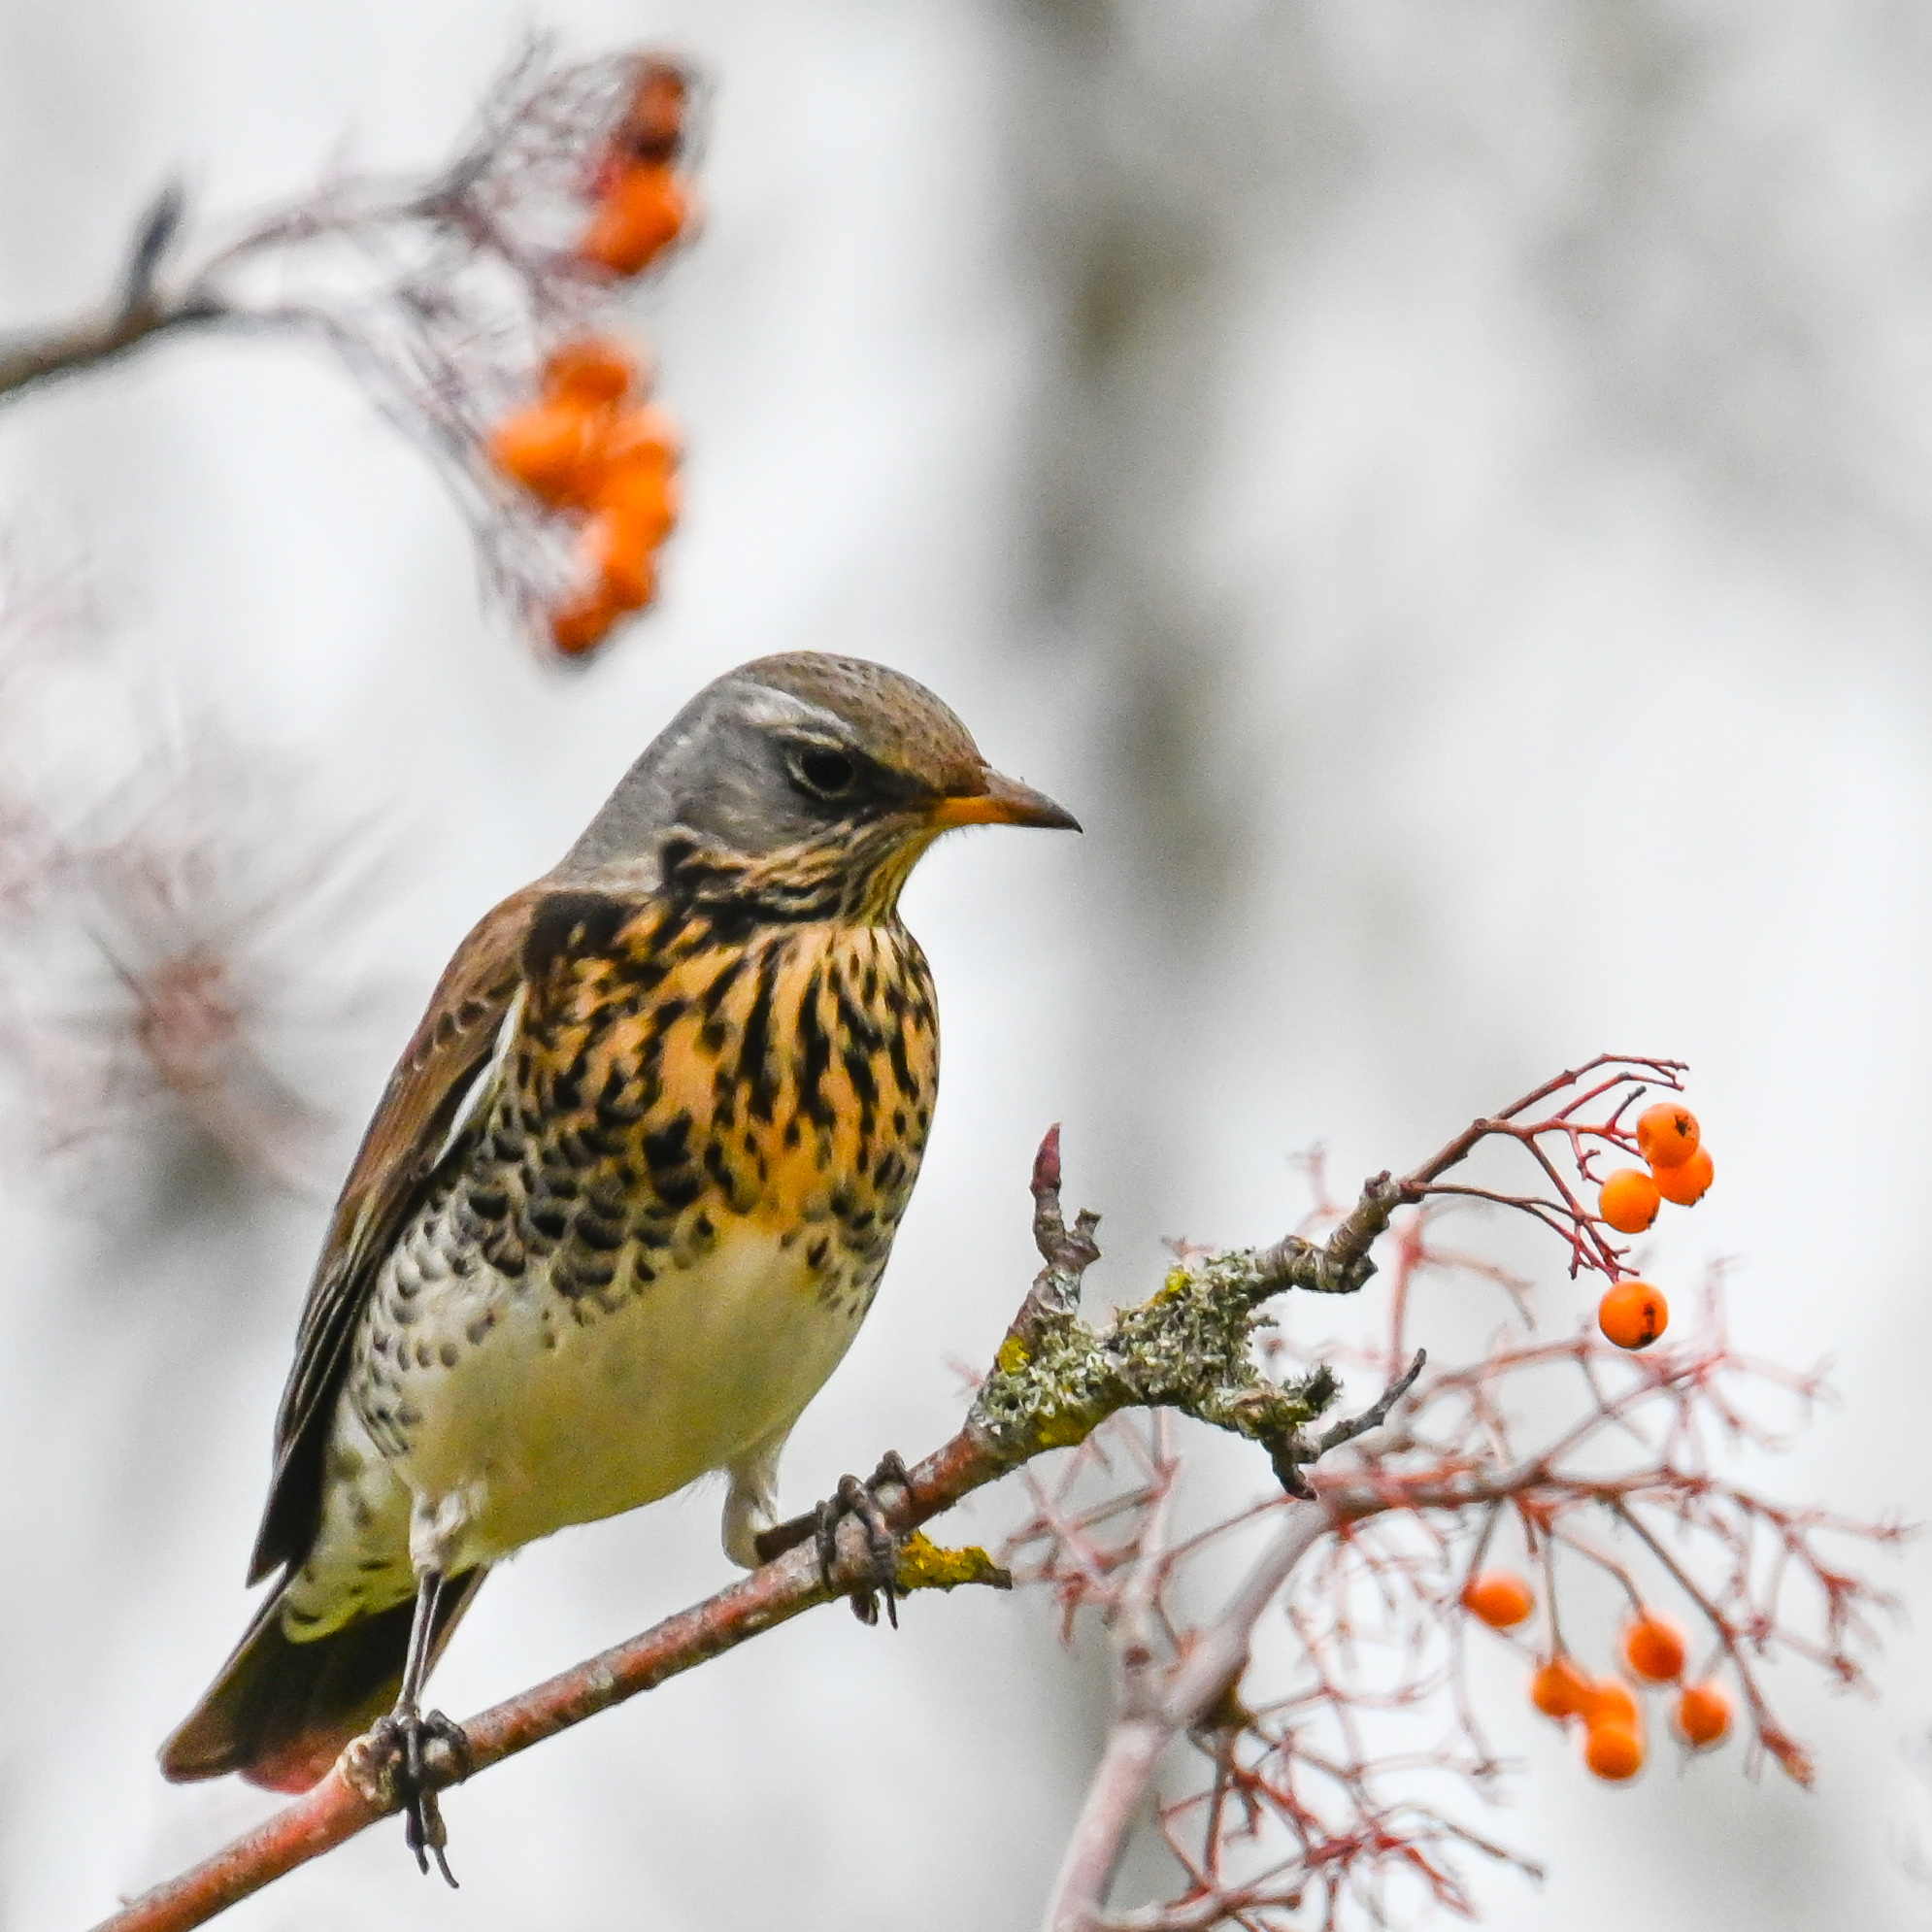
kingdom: Animalia
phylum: Chordata
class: Aves
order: Passeriformes
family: Turdidae
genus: Turdus
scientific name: Turdus pilaris
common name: Fieldfare
